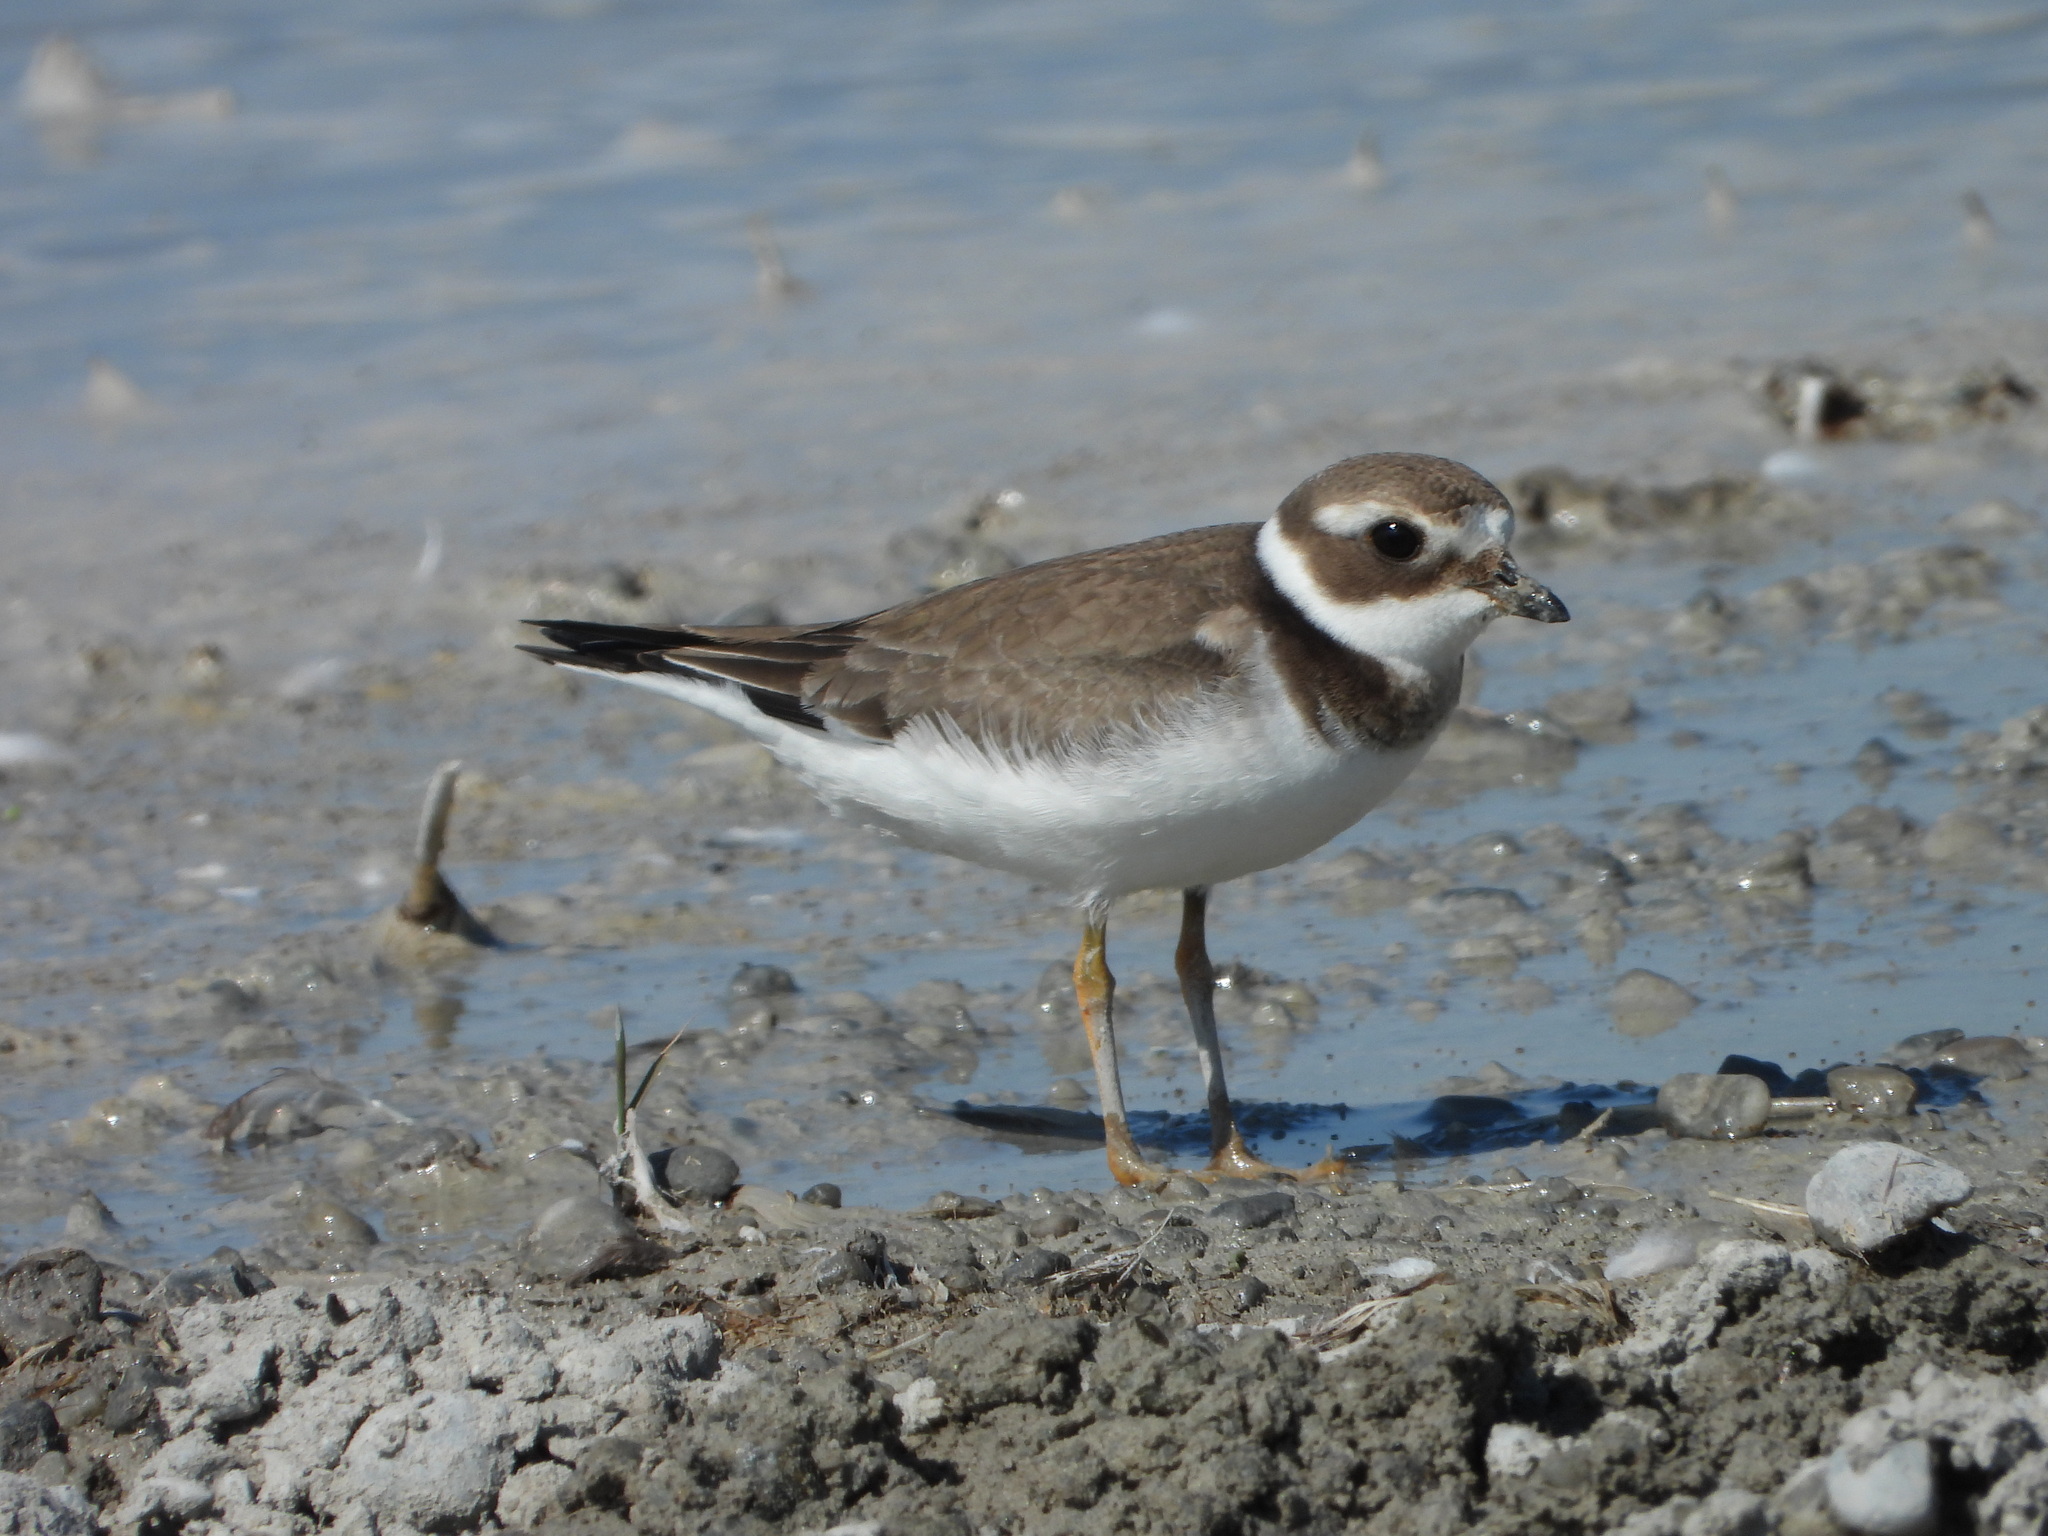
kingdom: Animalia
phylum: Chordata
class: Aves
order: Charadriiformes
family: Charadriidae
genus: Charadrius
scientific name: Charadrius hiaticula
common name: Common ringed plover
